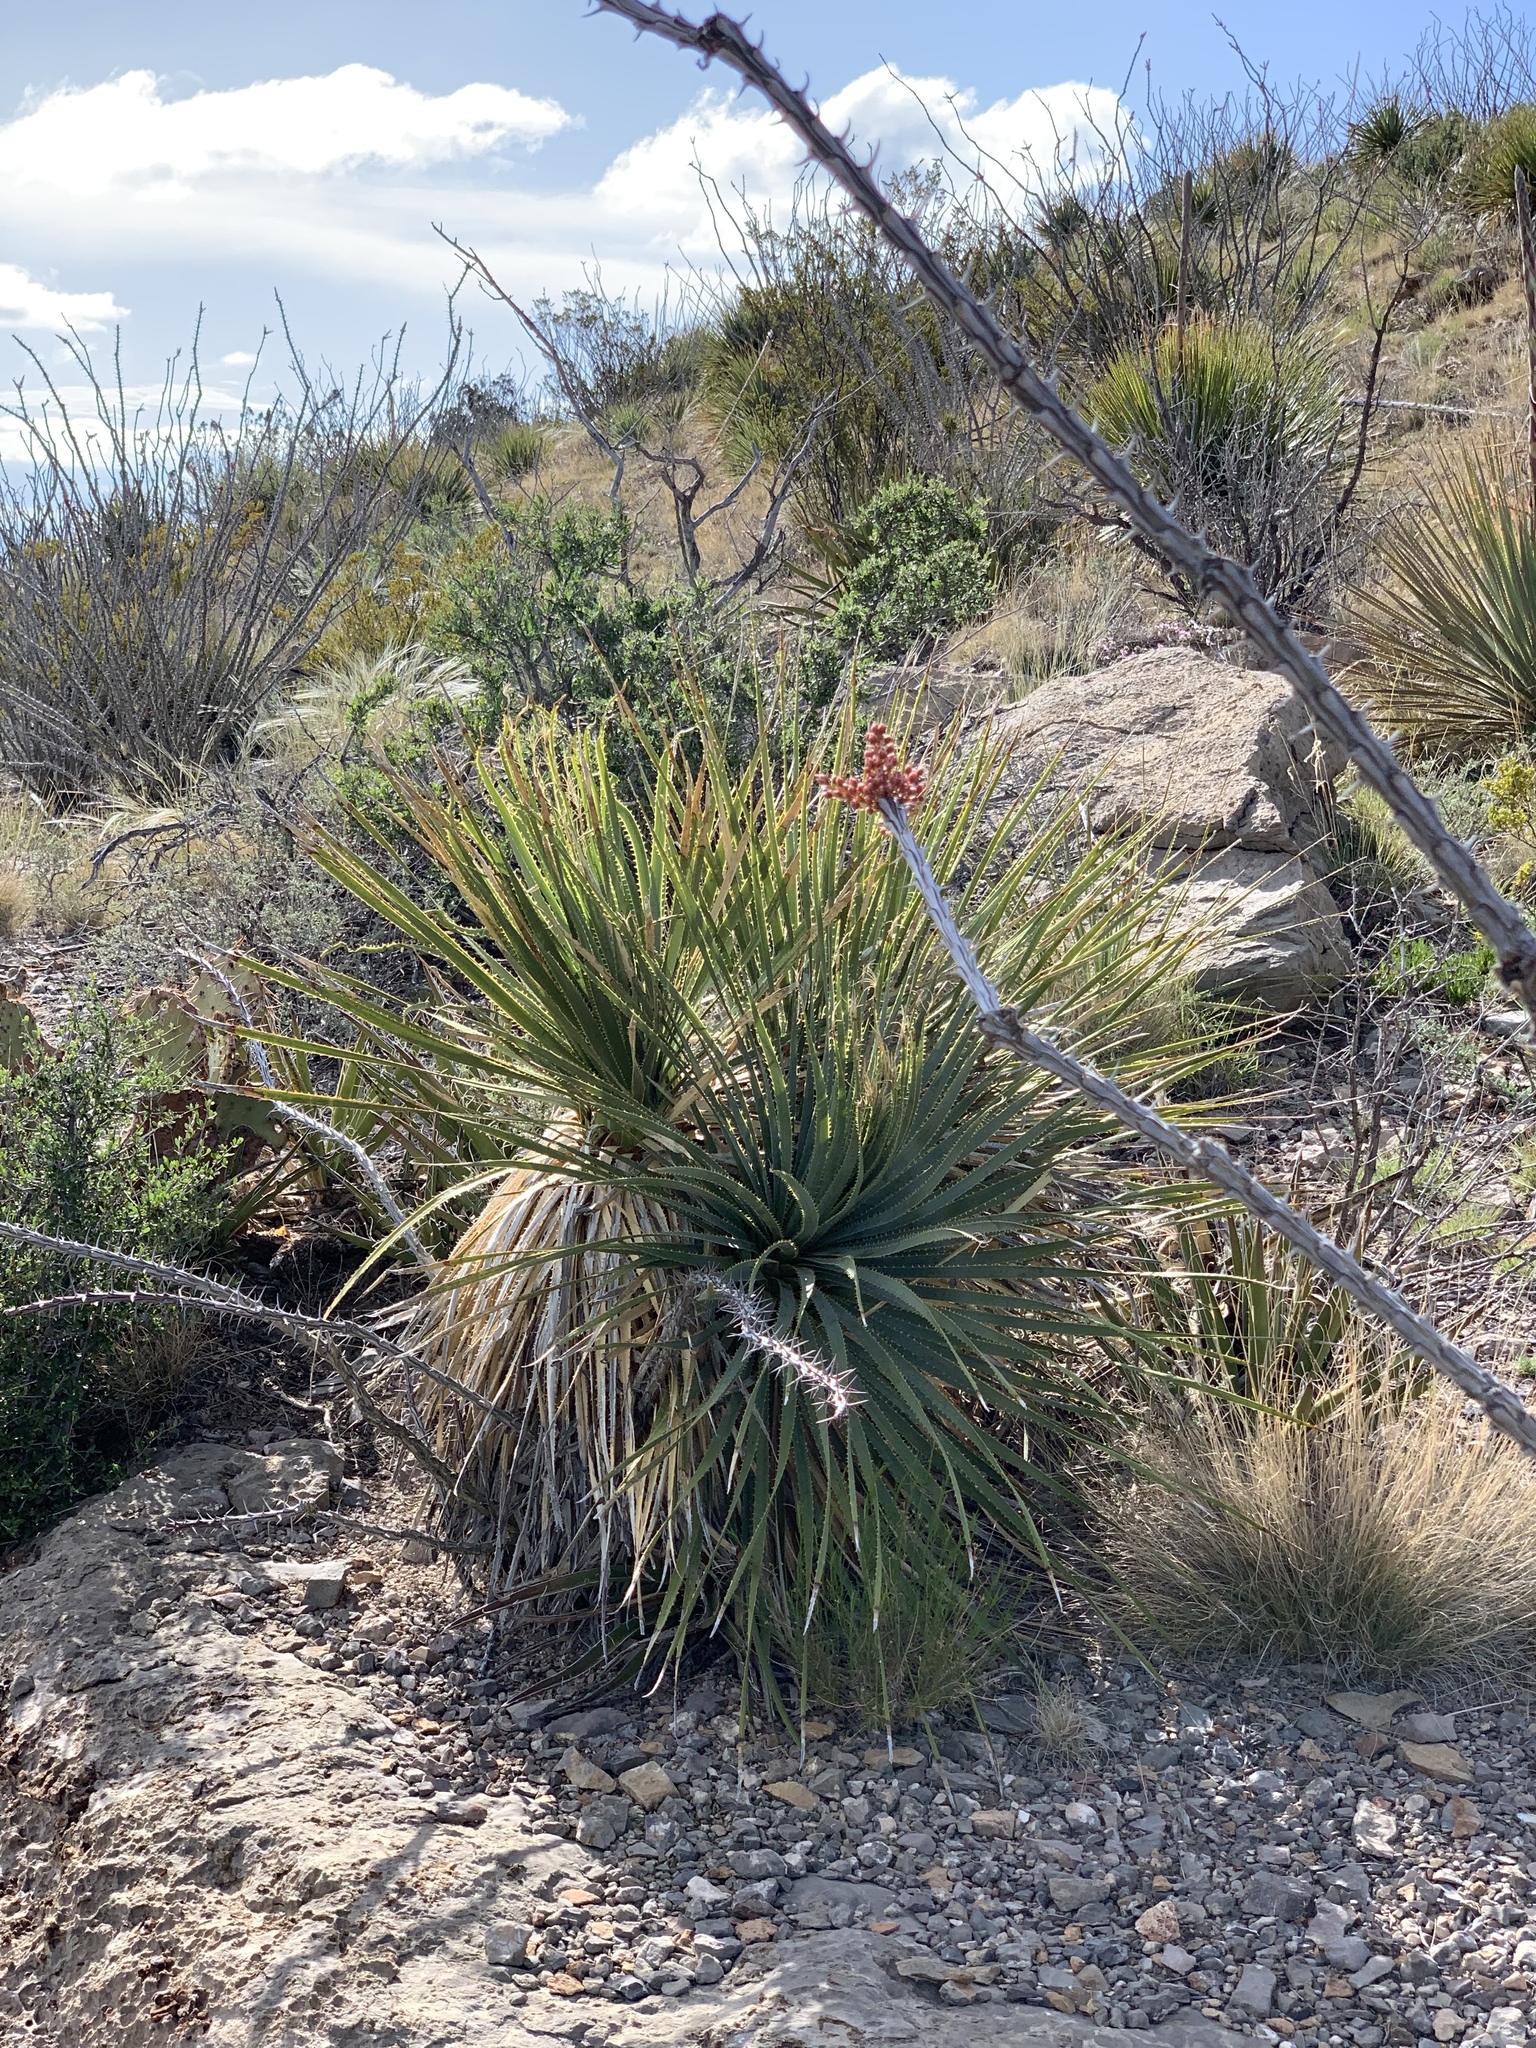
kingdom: Plantae
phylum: Tracheophyta
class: Liliopsida
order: Asparagales
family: Asparagaceae
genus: Dasylirion
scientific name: Dasylirion wheeleri
